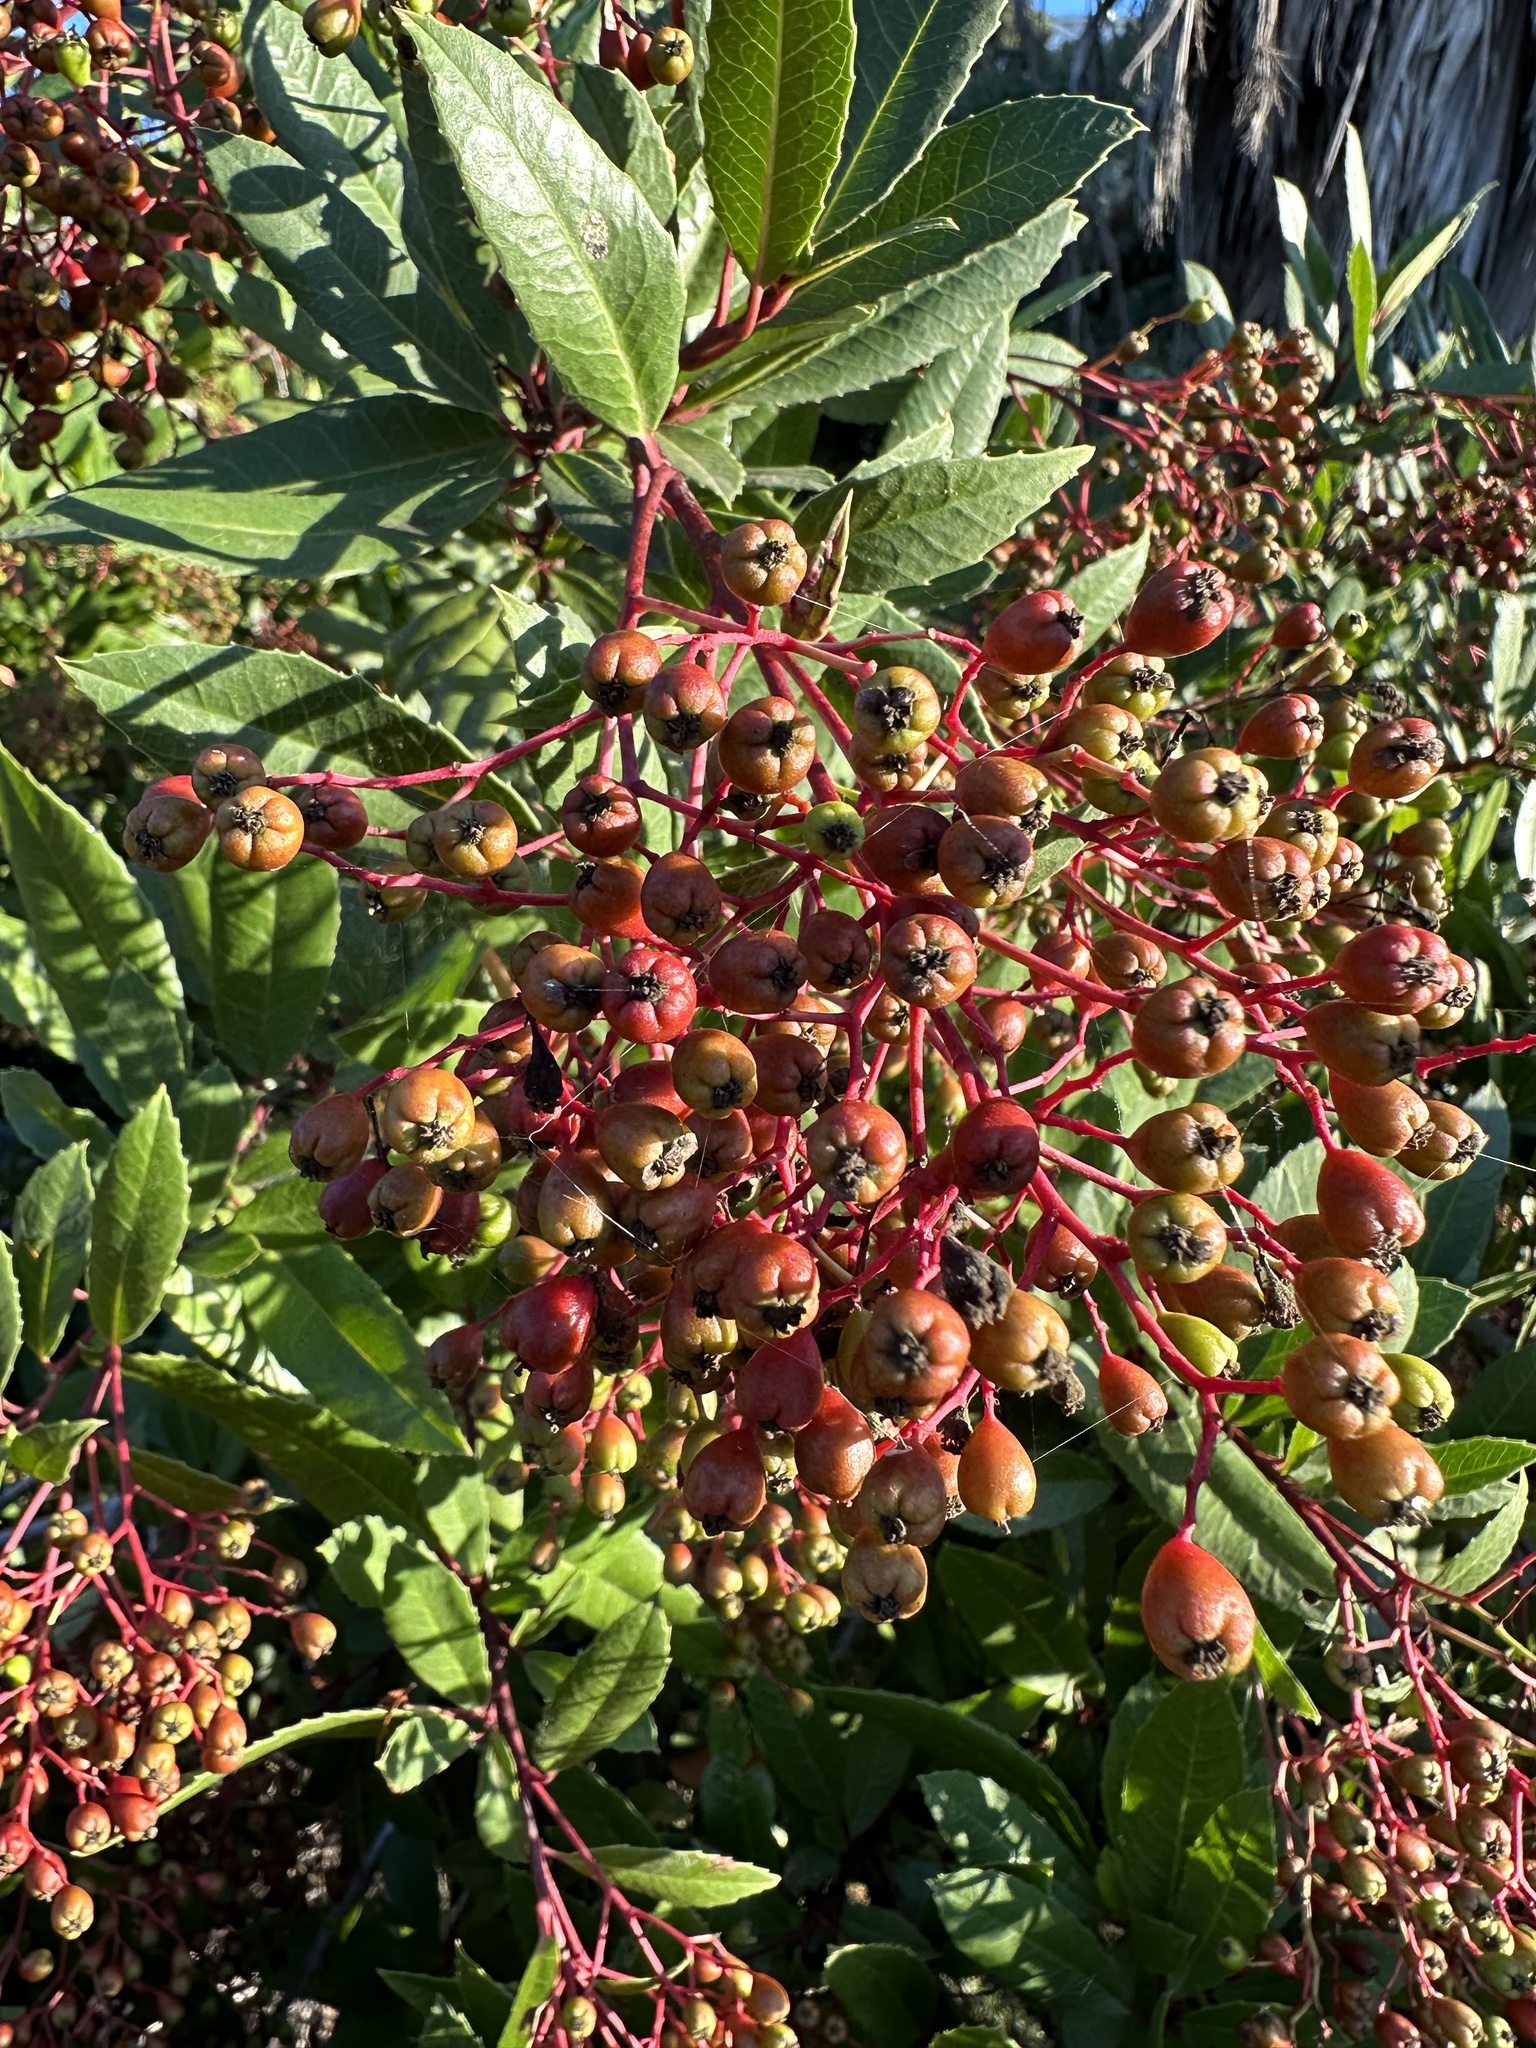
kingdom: Plantae
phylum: Tracheophyta
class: Magnoliopsida
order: Rosales
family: Rosaceae
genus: Heteromeles
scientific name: Heteromeles arbutifolia
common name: California-holly
